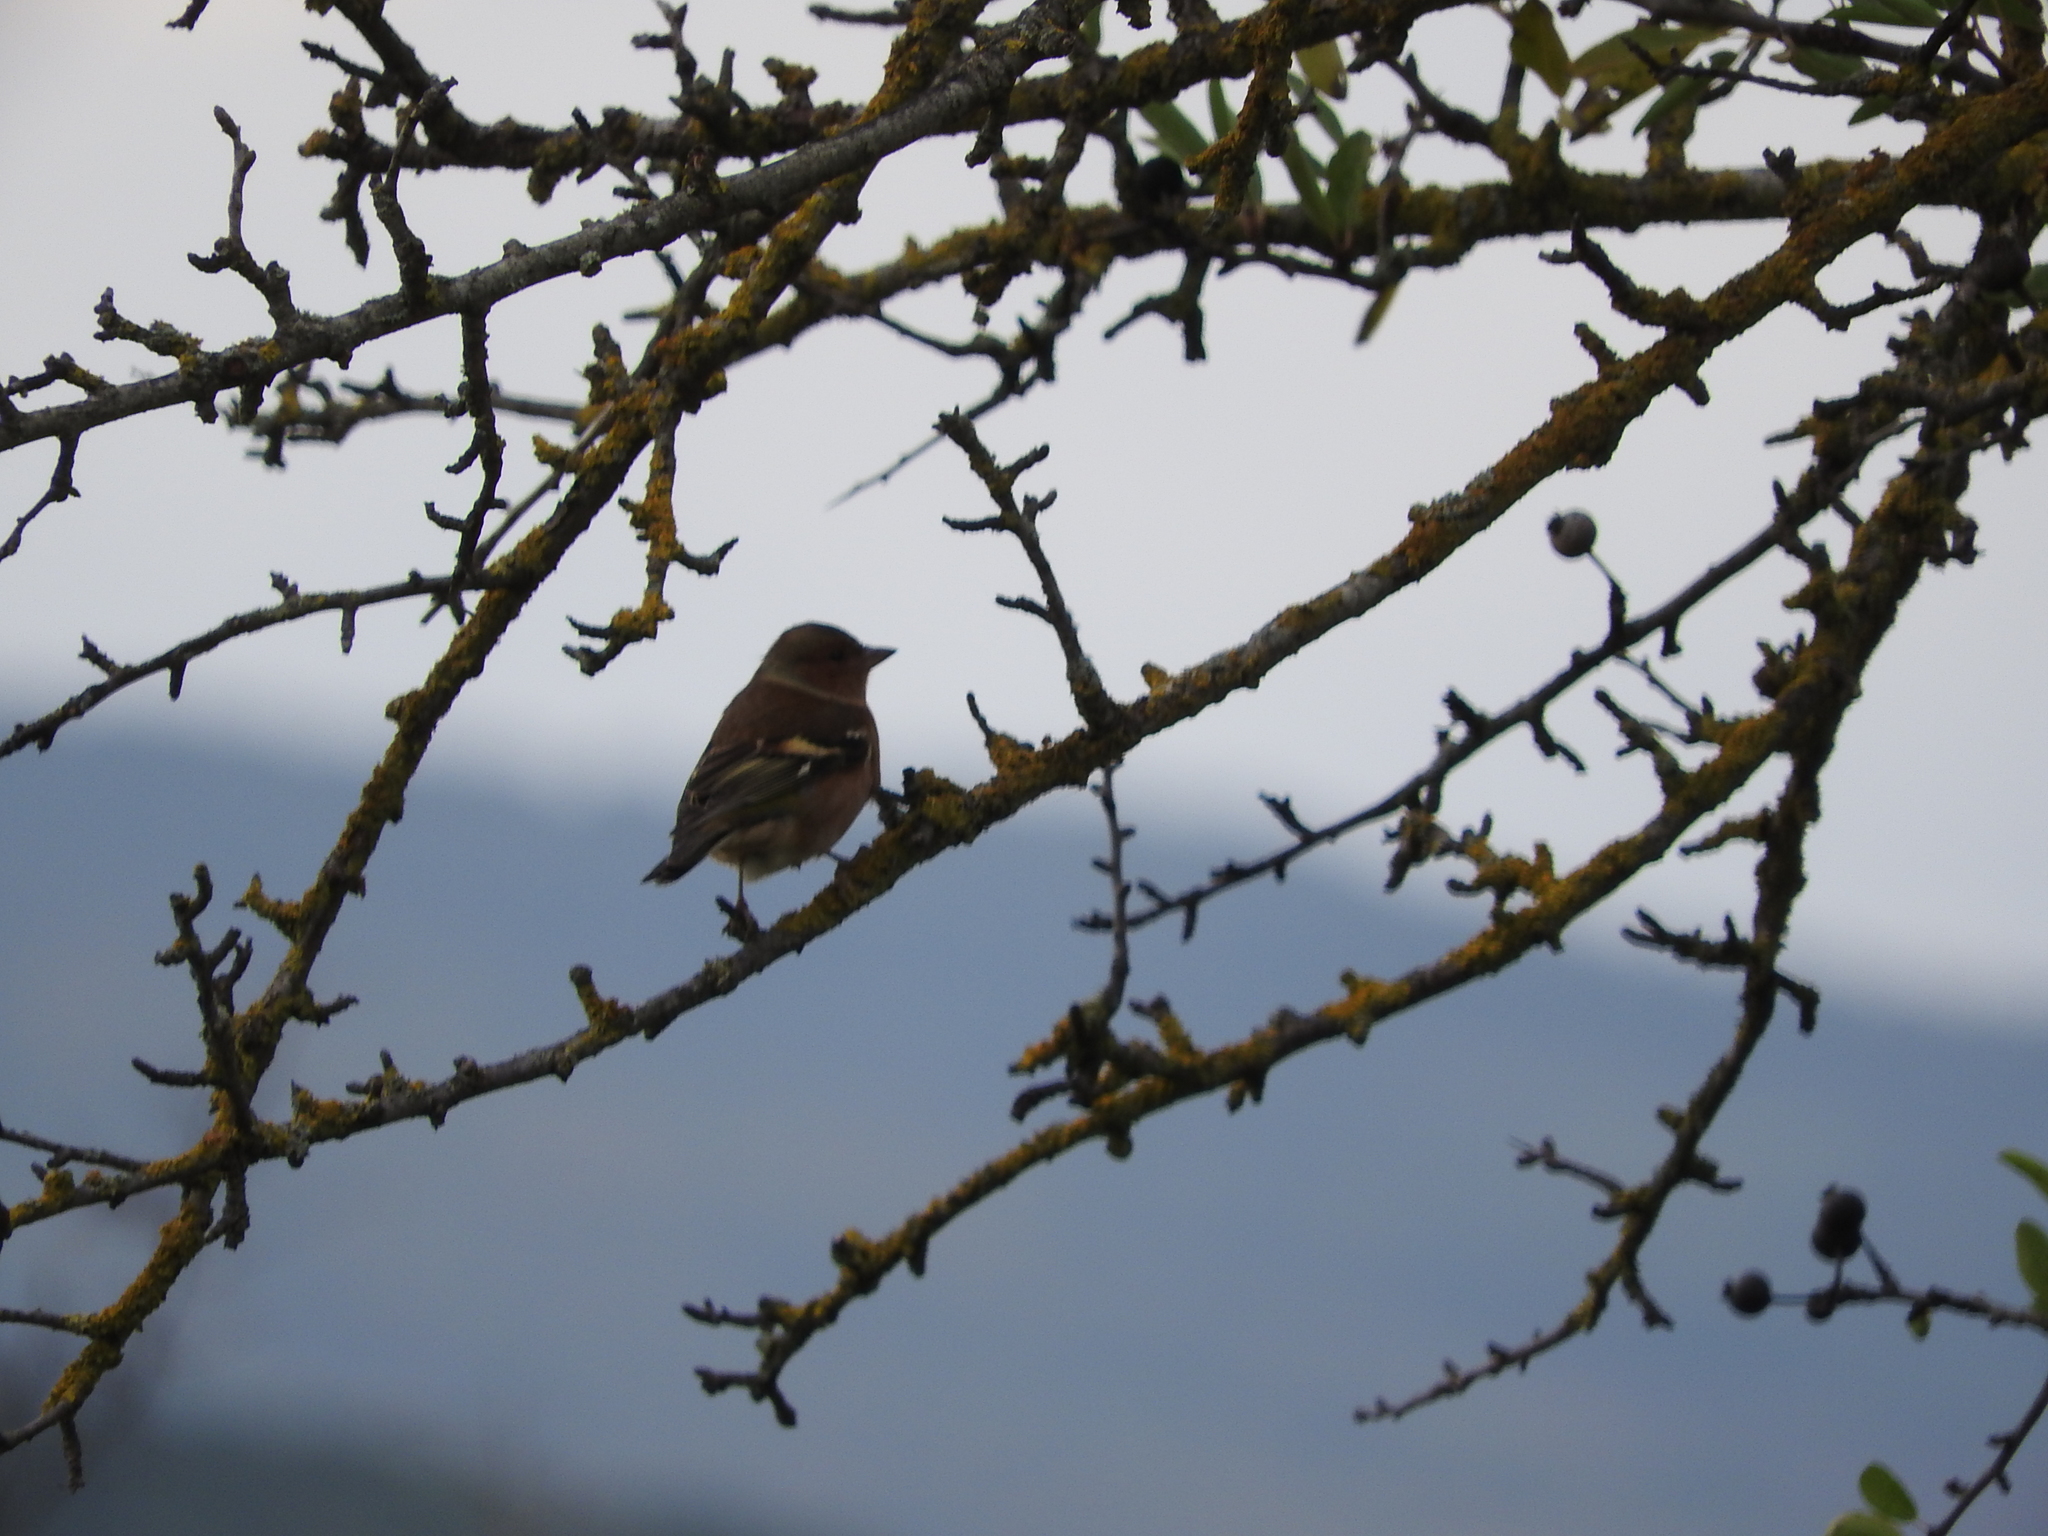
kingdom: Animalia
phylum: Chordata
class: Aves
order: Passeriformes
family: Fringillidae
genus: Fringilla
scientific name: Fringilla coelebs
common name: Common chaffinch
